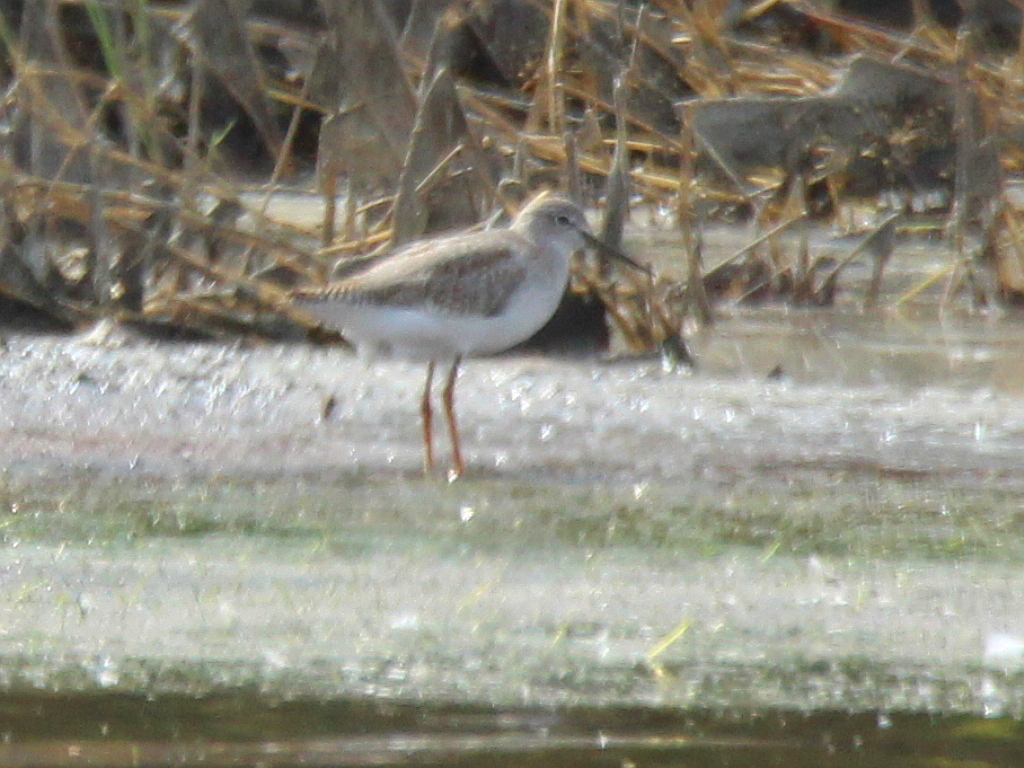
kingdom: Animalia
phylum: Chordata
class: Aves
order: Charadriiformes
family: Scolopacidae
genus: Tringa
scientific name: Tringa totanus
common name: Common redshank
